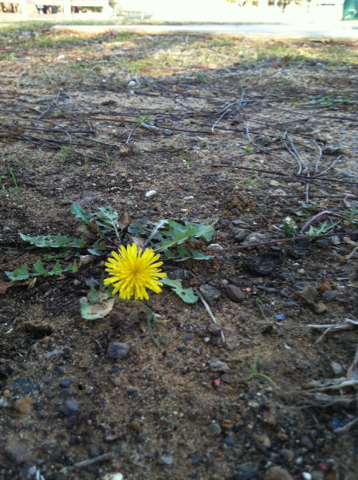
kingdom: Plantae
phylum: Tracheophyta
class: Magnoliopsida
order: Asterales
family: Asteraceae
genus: Taraxacum
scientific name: Taraxacum officinale
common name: Common dandelion
